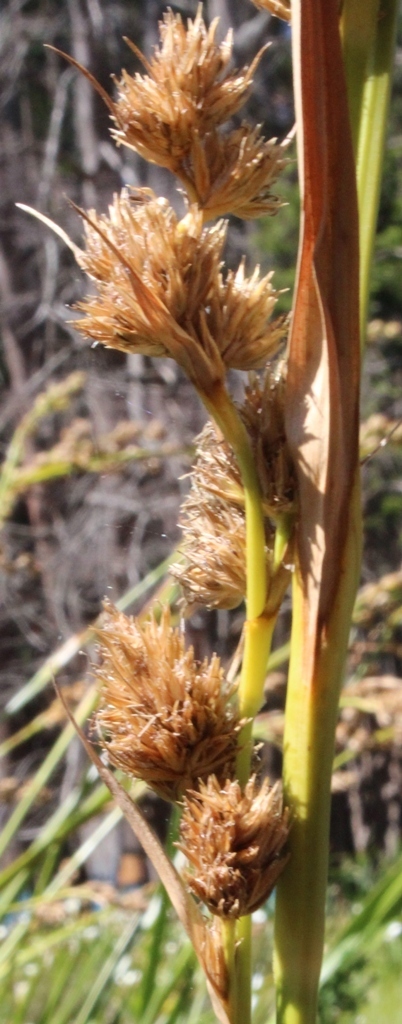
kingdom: Plantae
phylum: Tracheophyta
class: Liliopsida
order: Poales
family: Cyperaceae
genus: Carpha
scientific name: Carpha glomerata
